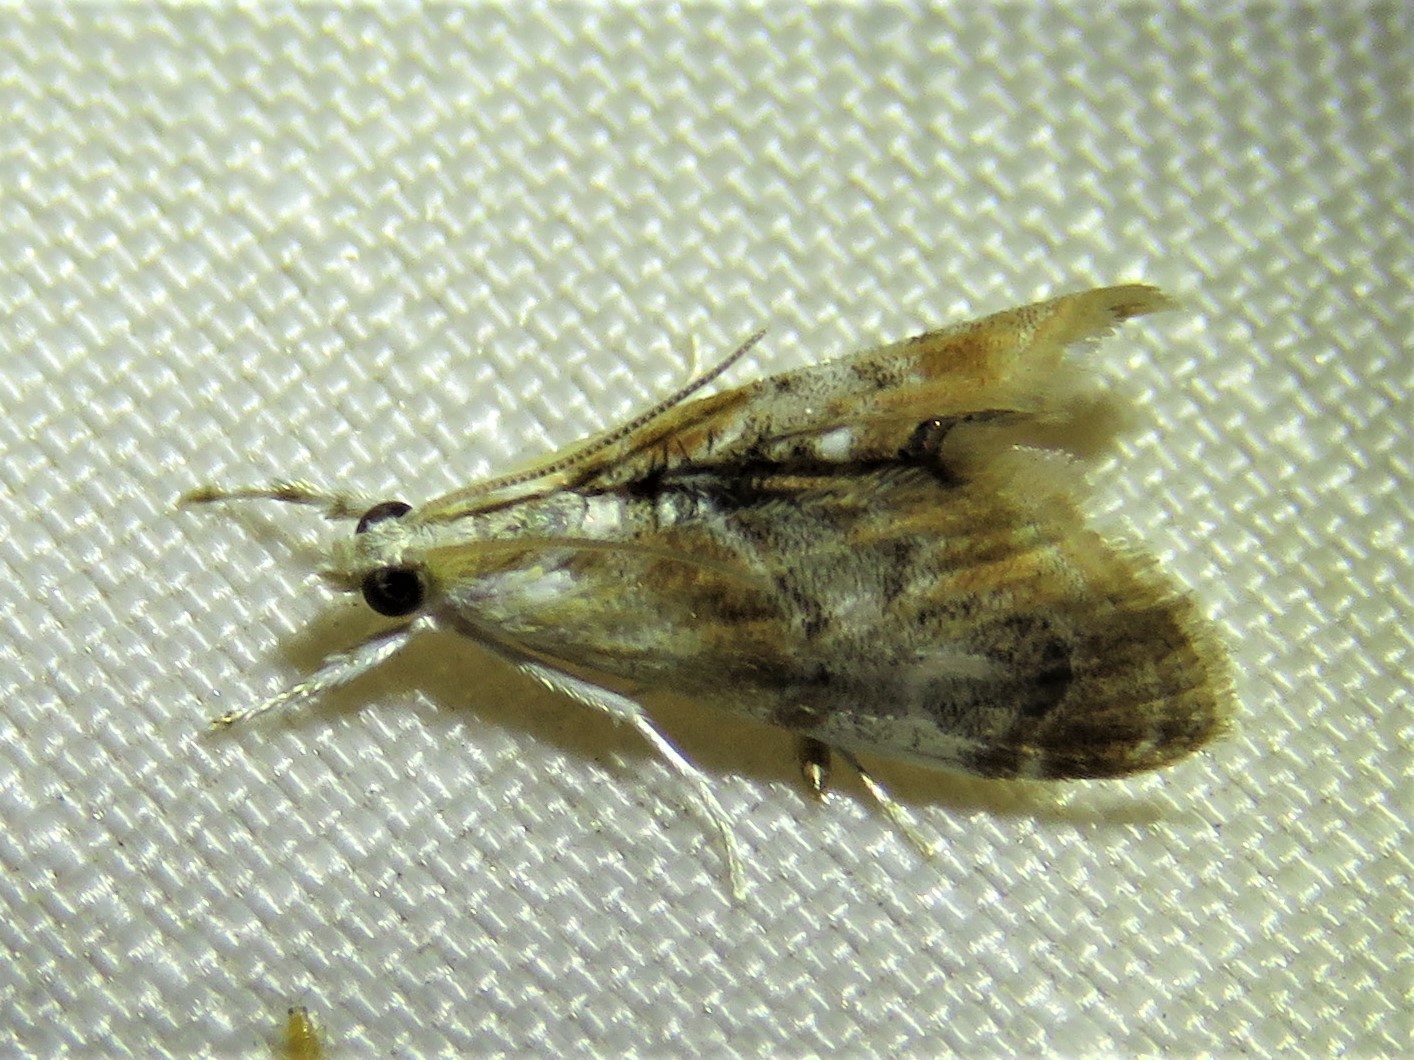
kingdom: Animalia
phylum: Arthropoda
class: Insecta
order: Lepidoptera
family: Crambidae
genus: Dicymolomia
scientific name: Dicymolomia julianalis
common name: Julia's dicymolomia moth
